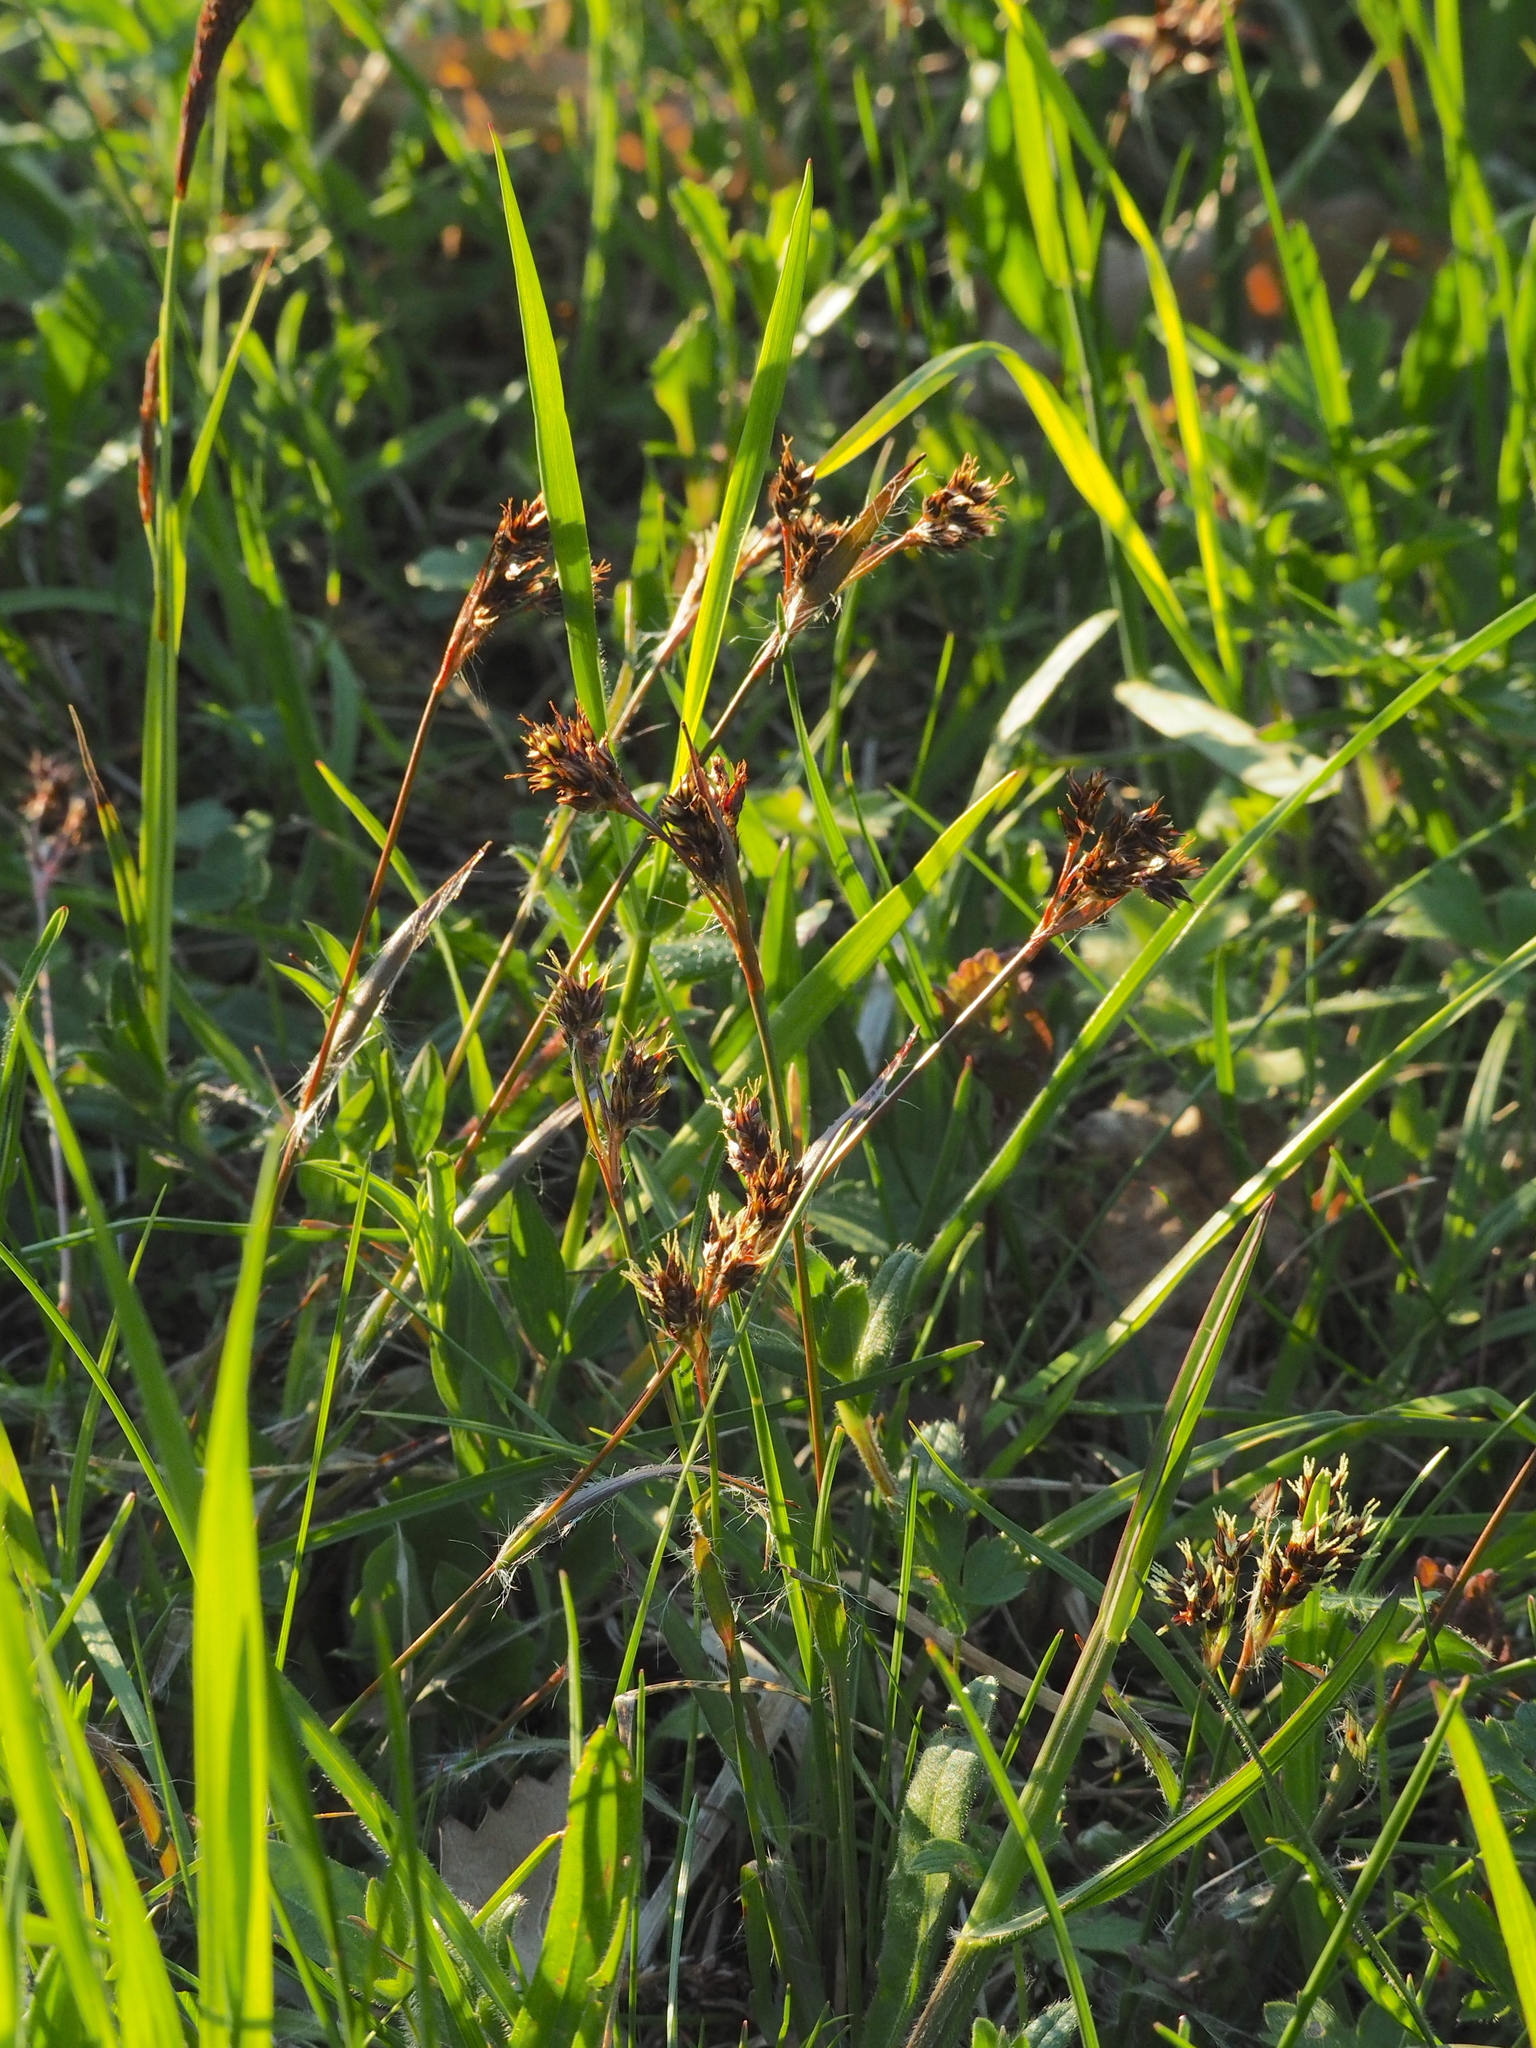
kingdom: Plantae
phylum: Tracheophyta
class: Liliopsida
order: Poales
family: Juncaceae
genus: Luzula
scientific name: Luzula campestris
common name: Field wood-rush
